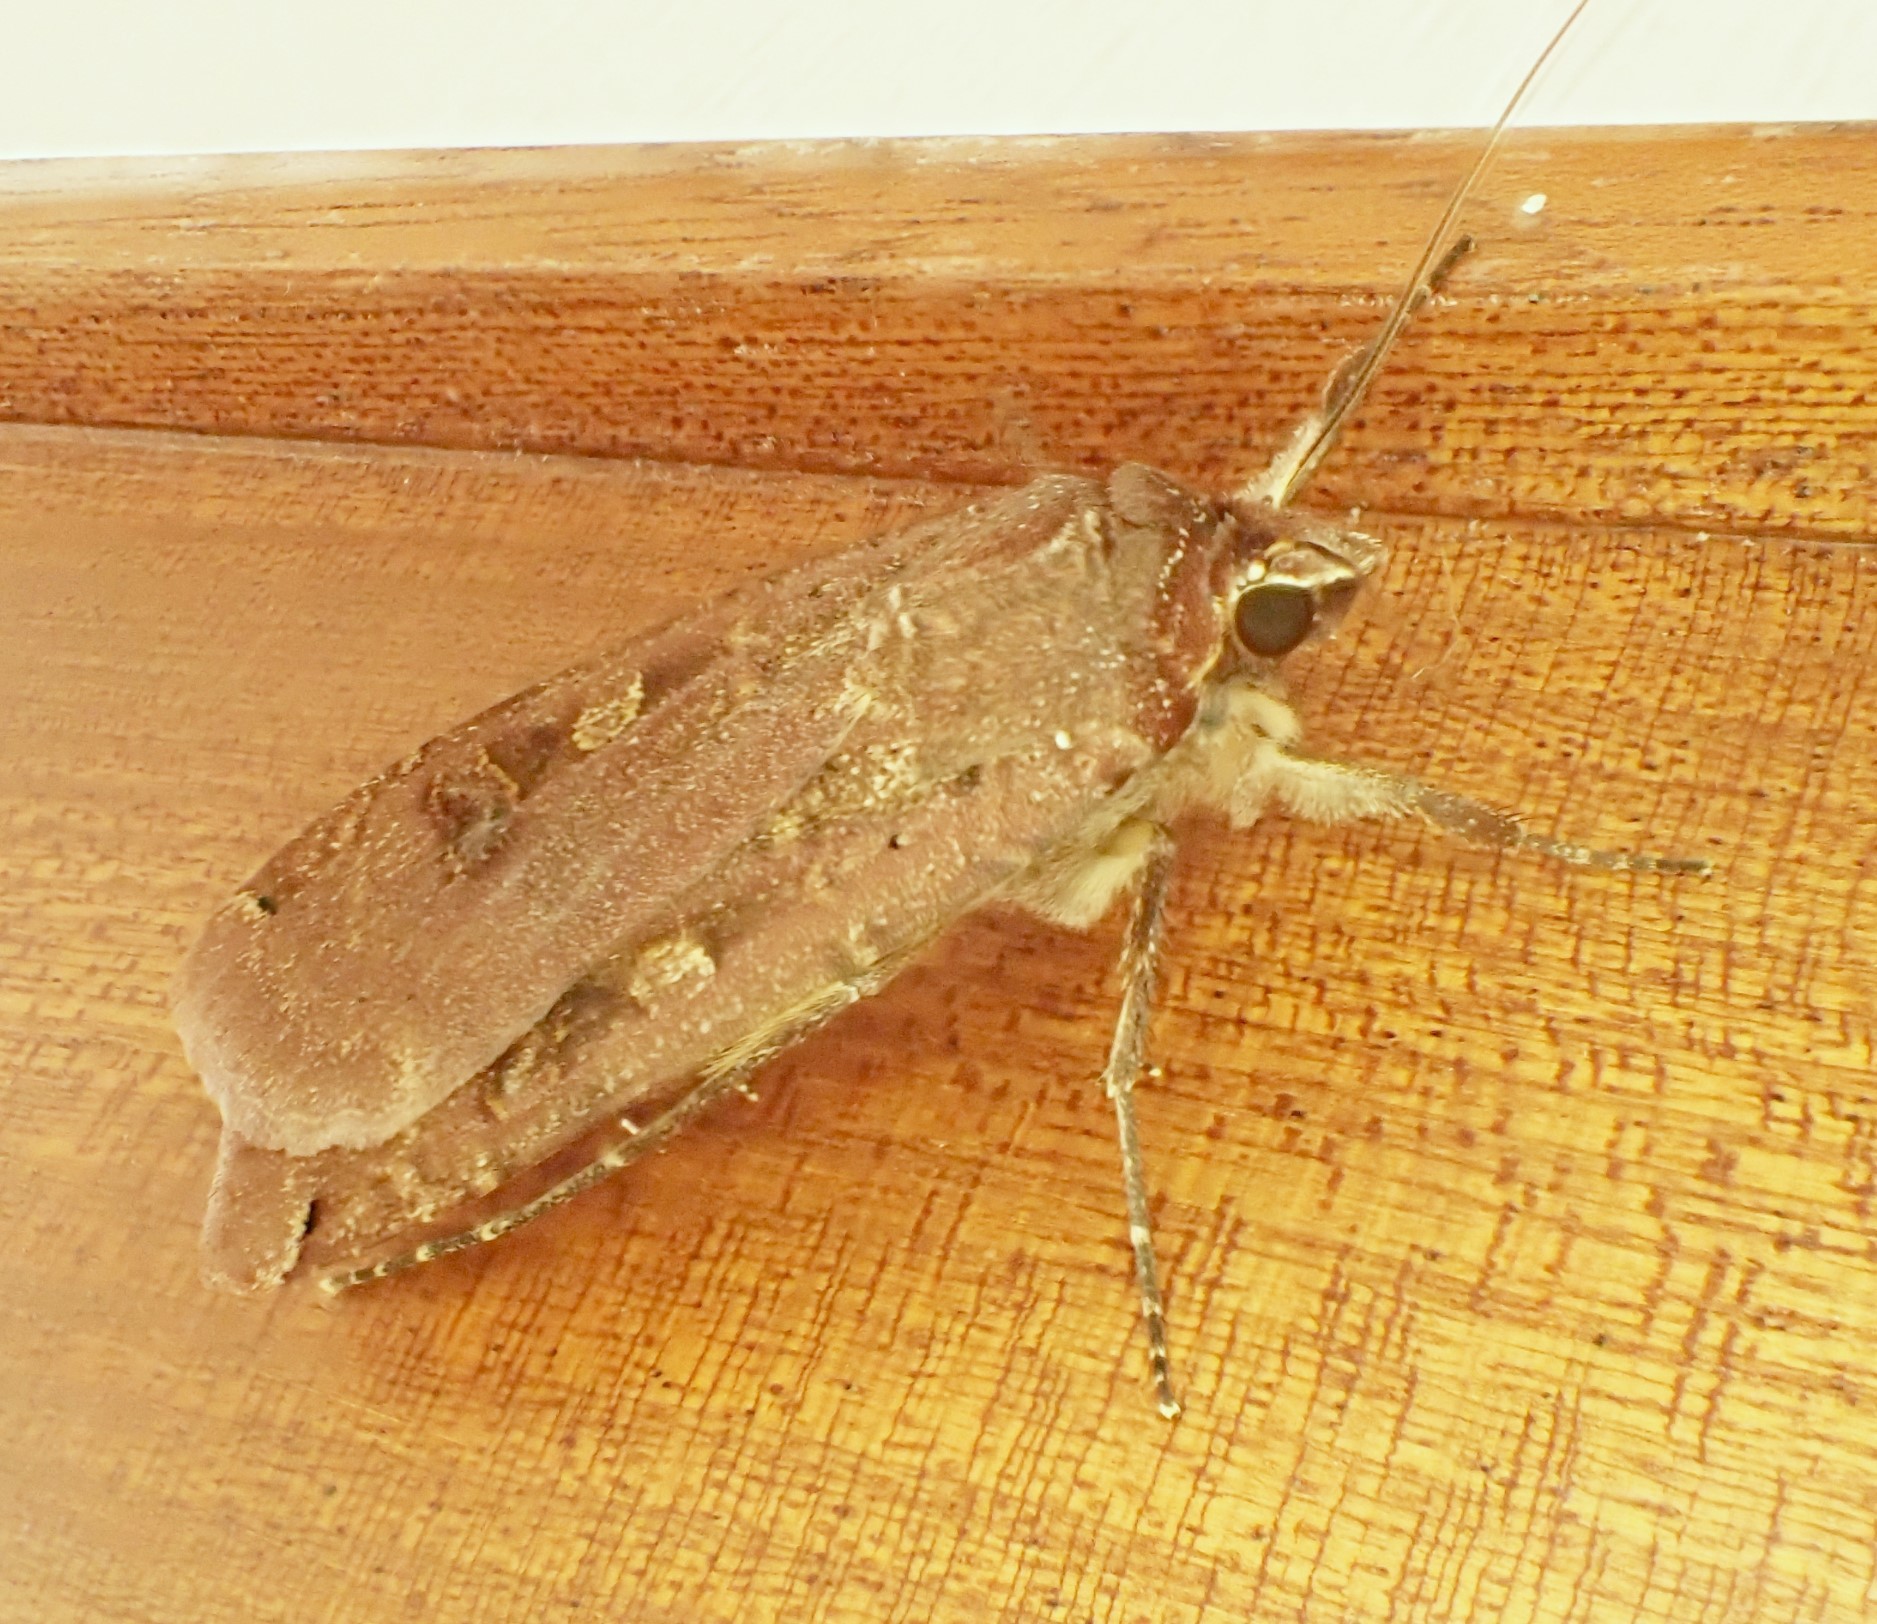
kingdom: Animalia
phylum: Arthropoda
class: Insecta
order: Lepidoptera
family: Noctuidae
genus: Noctua
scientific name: Noctua pronuba
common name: Large yellow underwing
